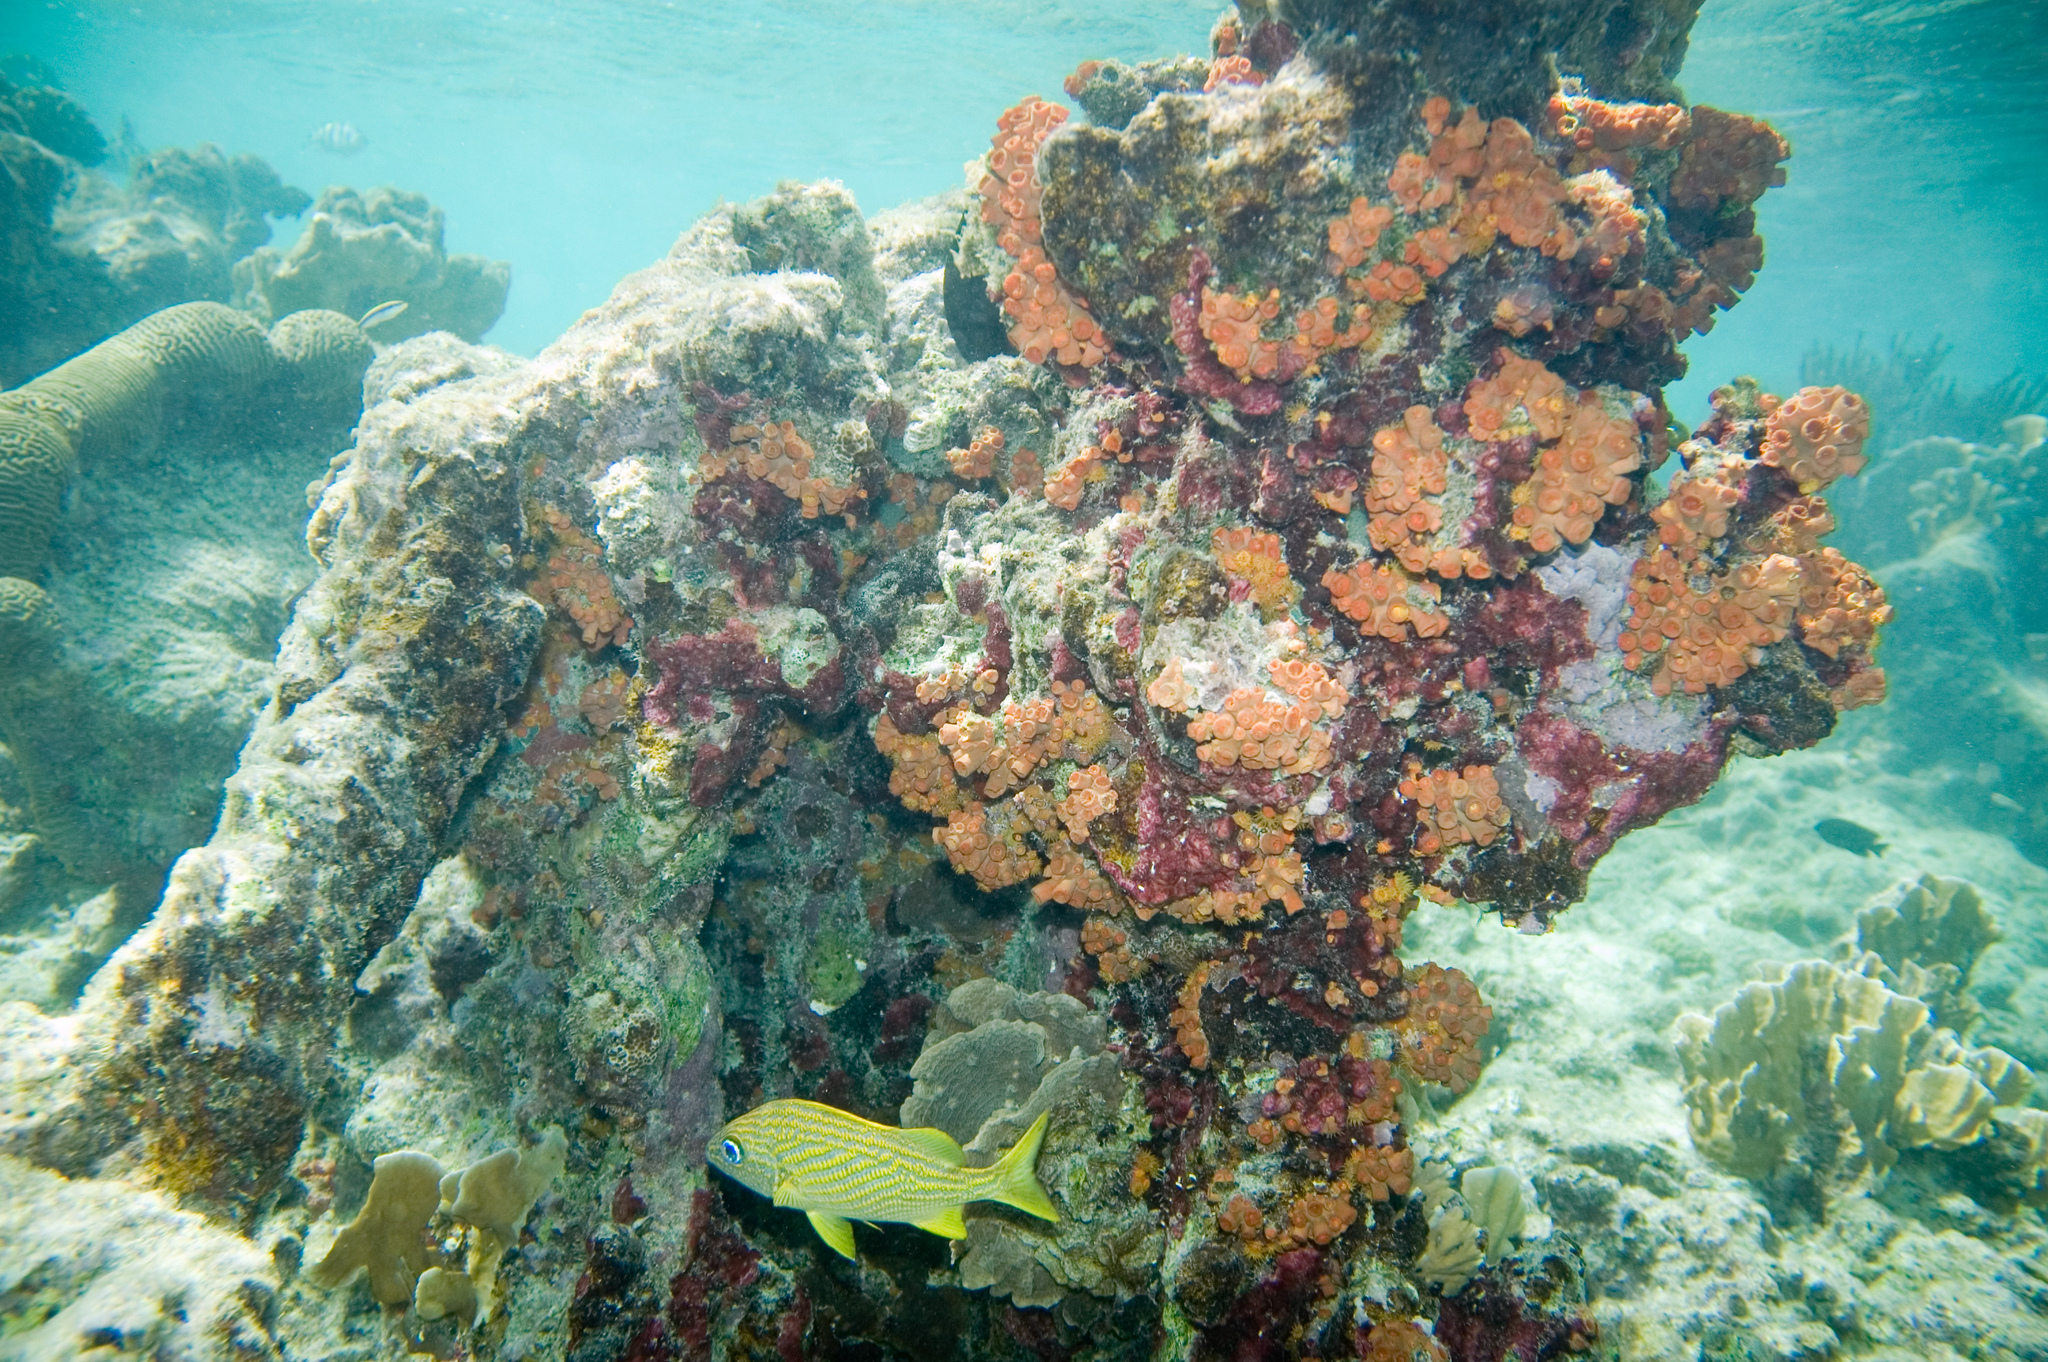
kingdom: Animalia
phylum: Chordata
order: Perciformes
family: Haemulidae
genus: Haemulon
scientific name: Haemulon flavolineatum
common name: French grunt
